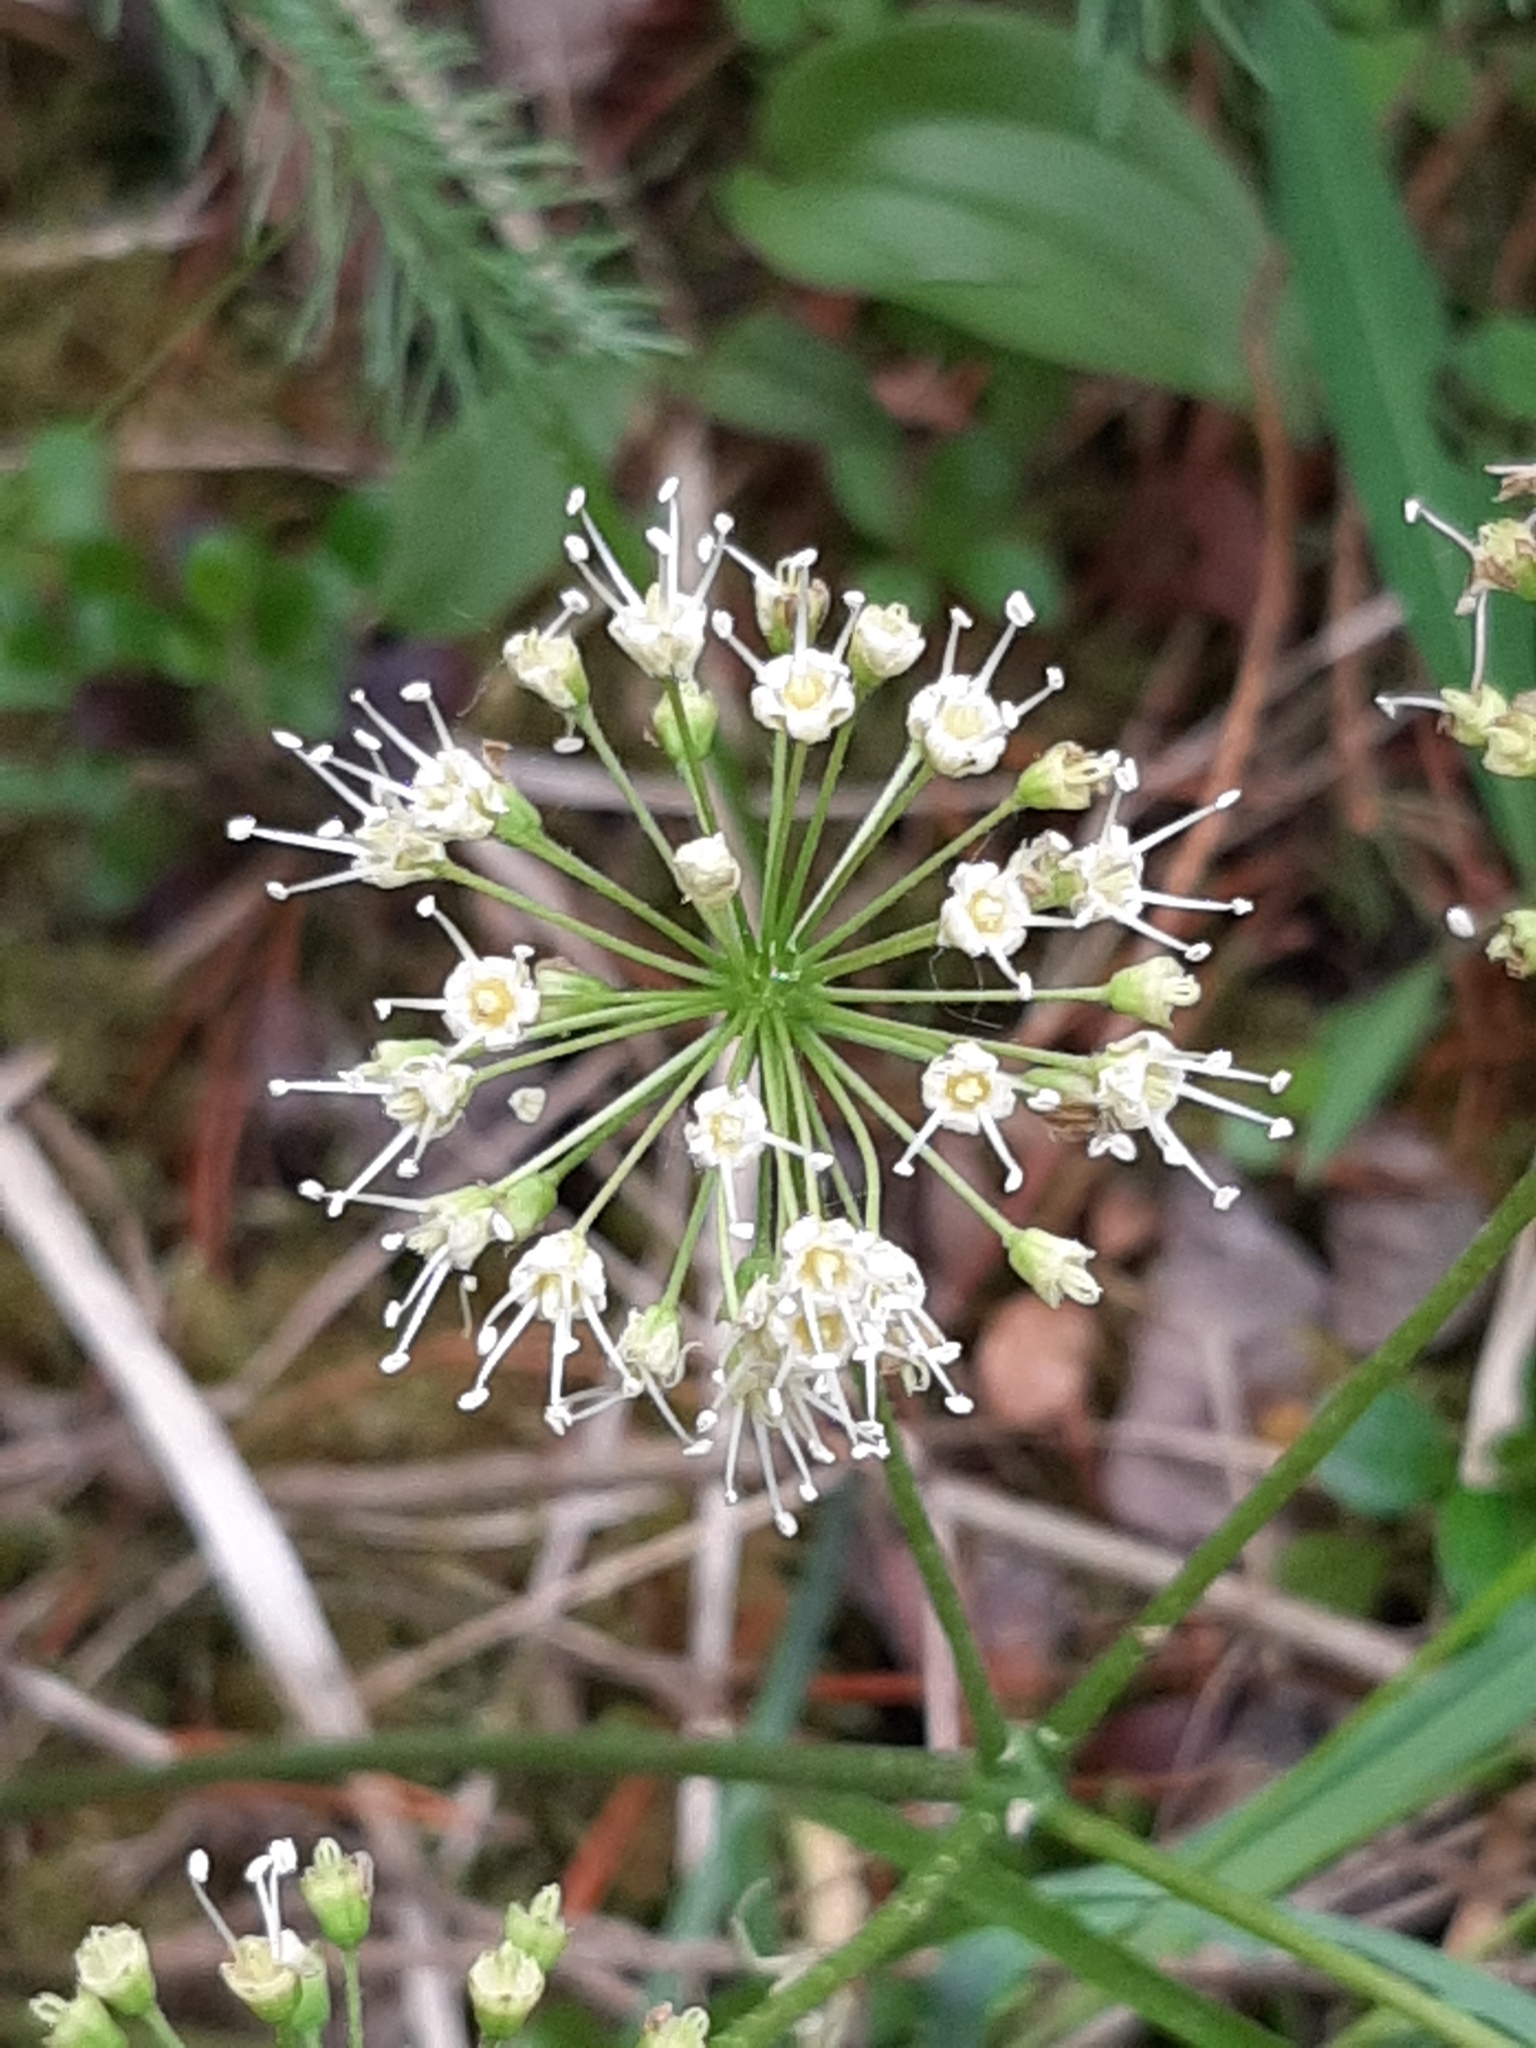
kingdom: Plantae
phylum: Tracheophyta
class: Magnoliopsida
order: Apiales
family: Araliaceae
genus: Aralia
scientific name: Aralia nudicaulis
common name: Wild sarsaparilla
